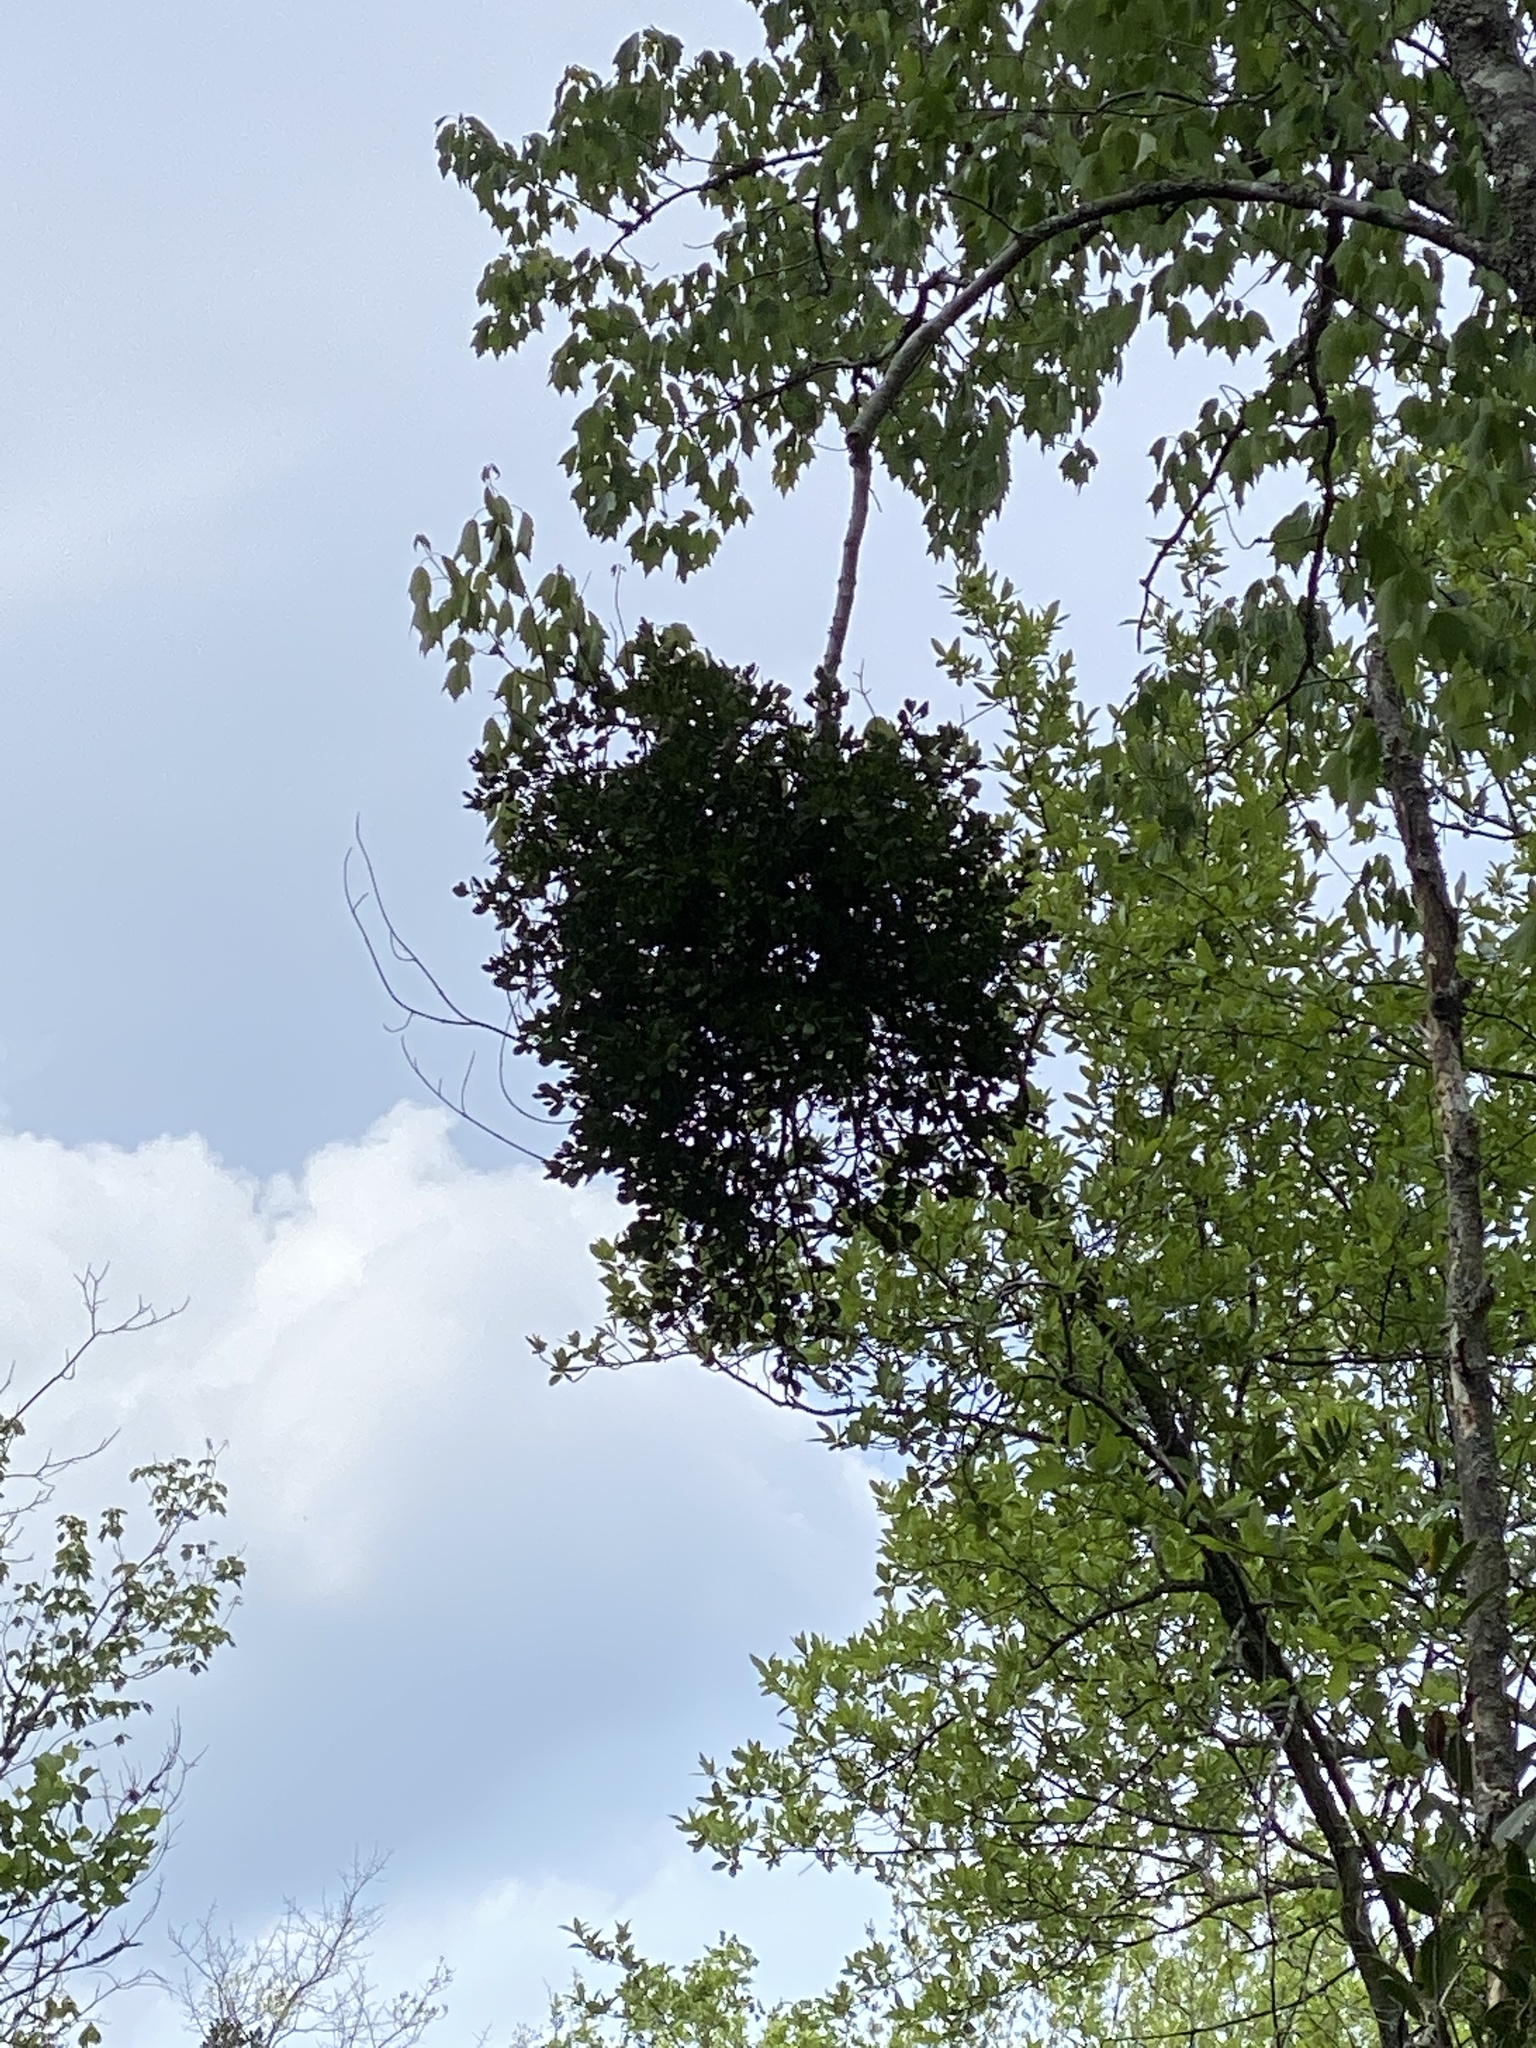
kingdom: Plantae
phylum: Tracheophyta
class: Magnoliopsida
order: Santalales
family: Viscaceae
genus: Phoradendron
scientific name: Phoradendron leucarpum
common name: Pacific mistletoe
